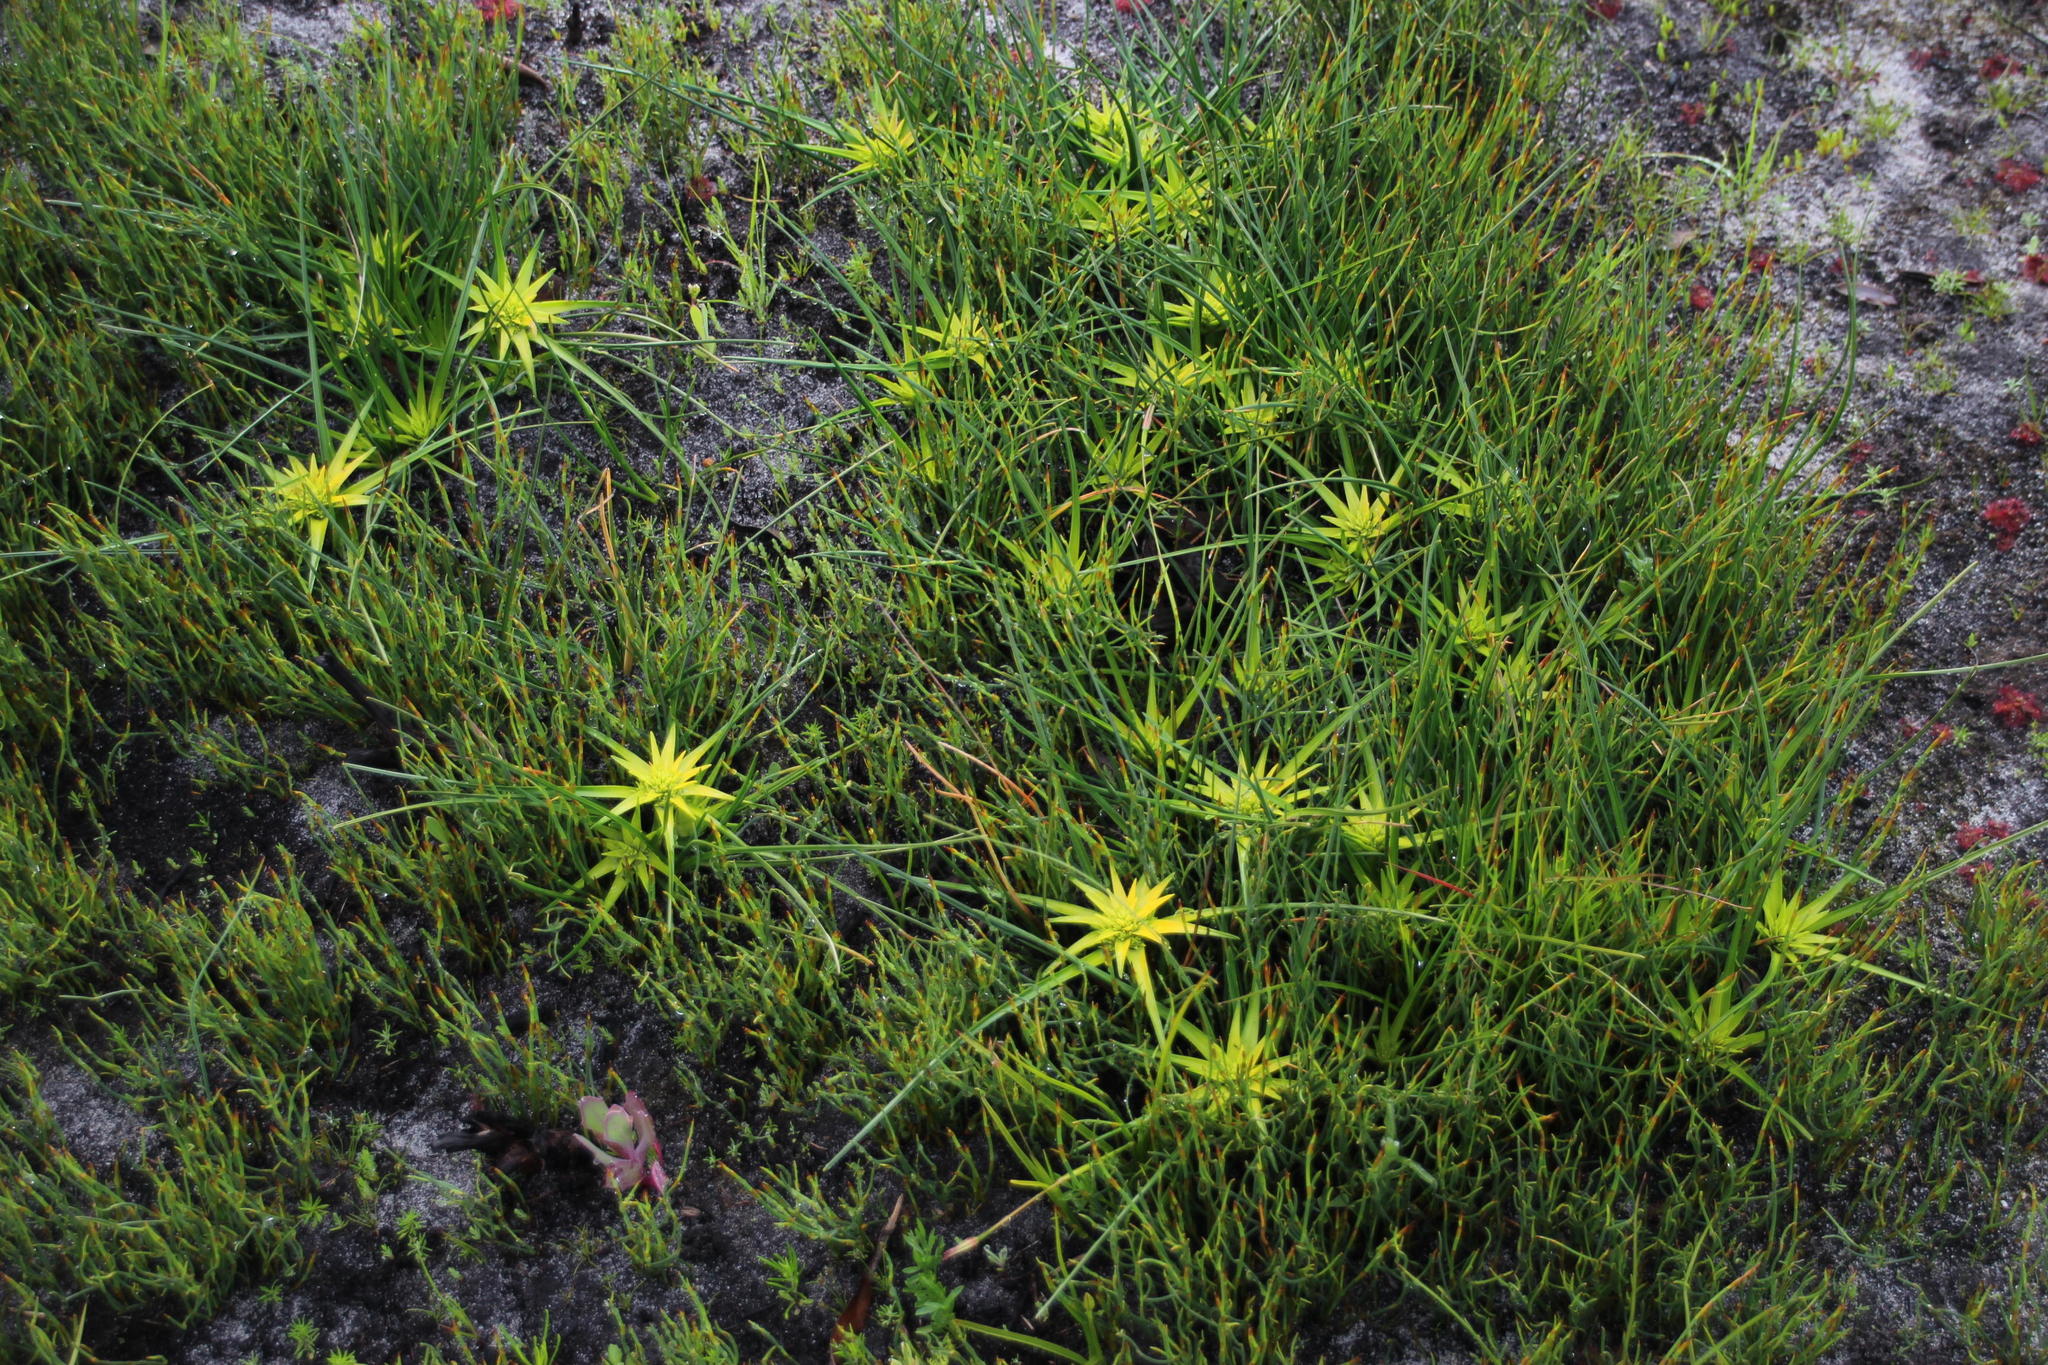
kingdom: Plantae
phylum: Tracheophyta
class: Liliopsida
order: Poales
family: Cyperaceae
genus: Ficinia
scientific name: Ficinia radiata
